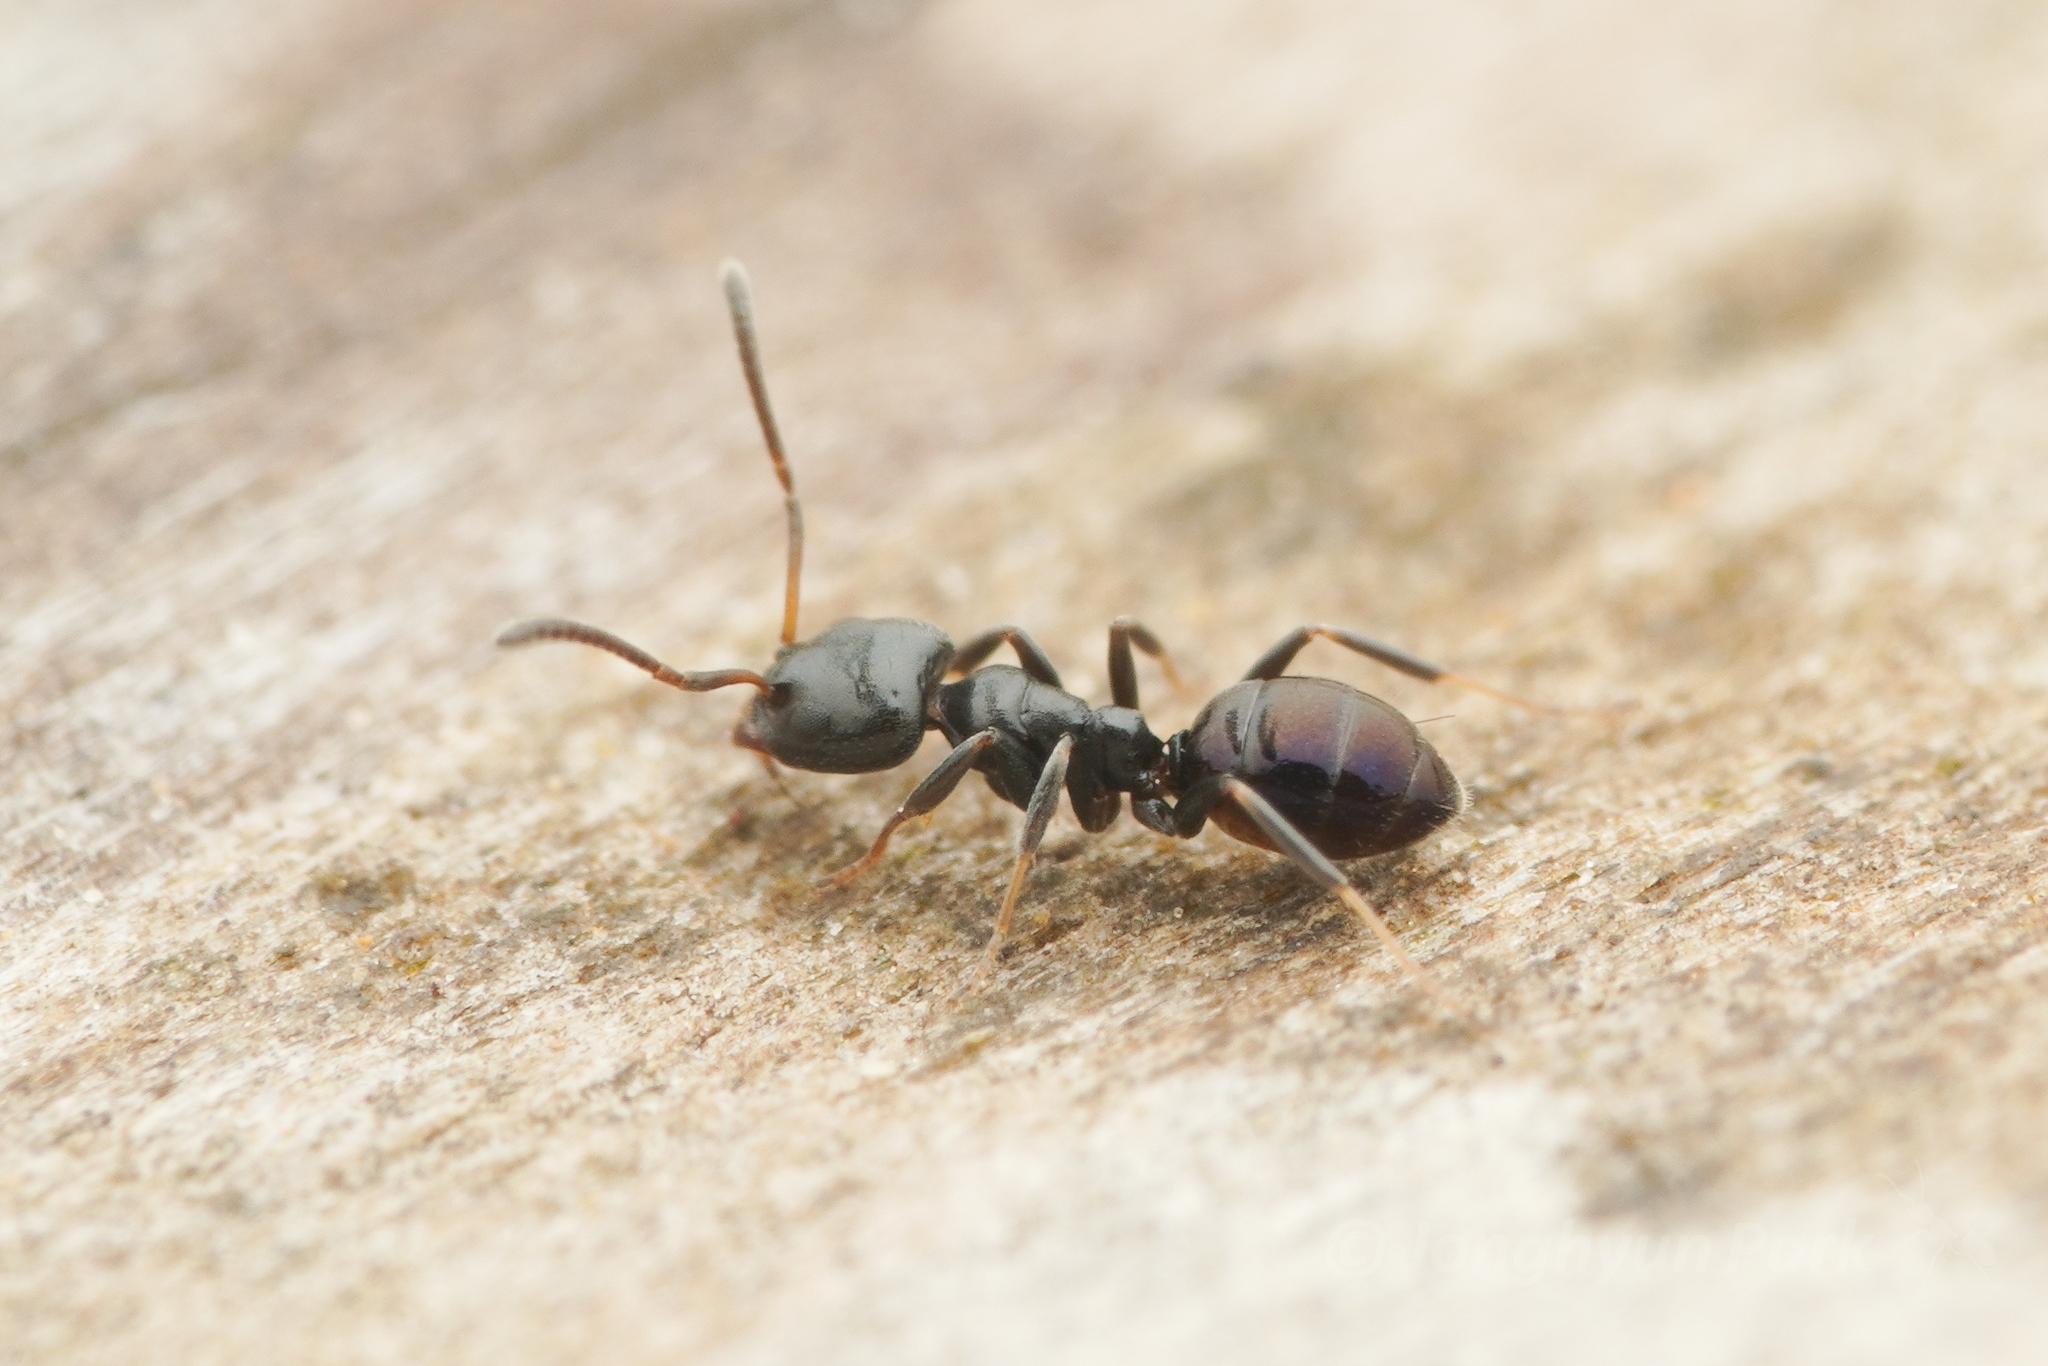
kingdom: Animalia
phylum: Arthropoda
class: Insecta
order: Hymenoptera
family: Formicidae
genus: Ochetellus
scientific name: Ochetellus glaber
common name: Ant
